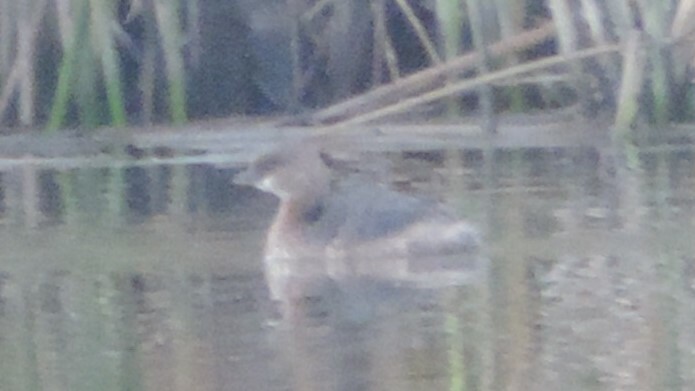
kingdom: Animalia
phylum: Chordata
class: Aves
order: Podicipediformes
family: Podicipedidae
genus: Podilymbus
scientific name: Podilymbus podiceps
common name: Pied-billed grebe
